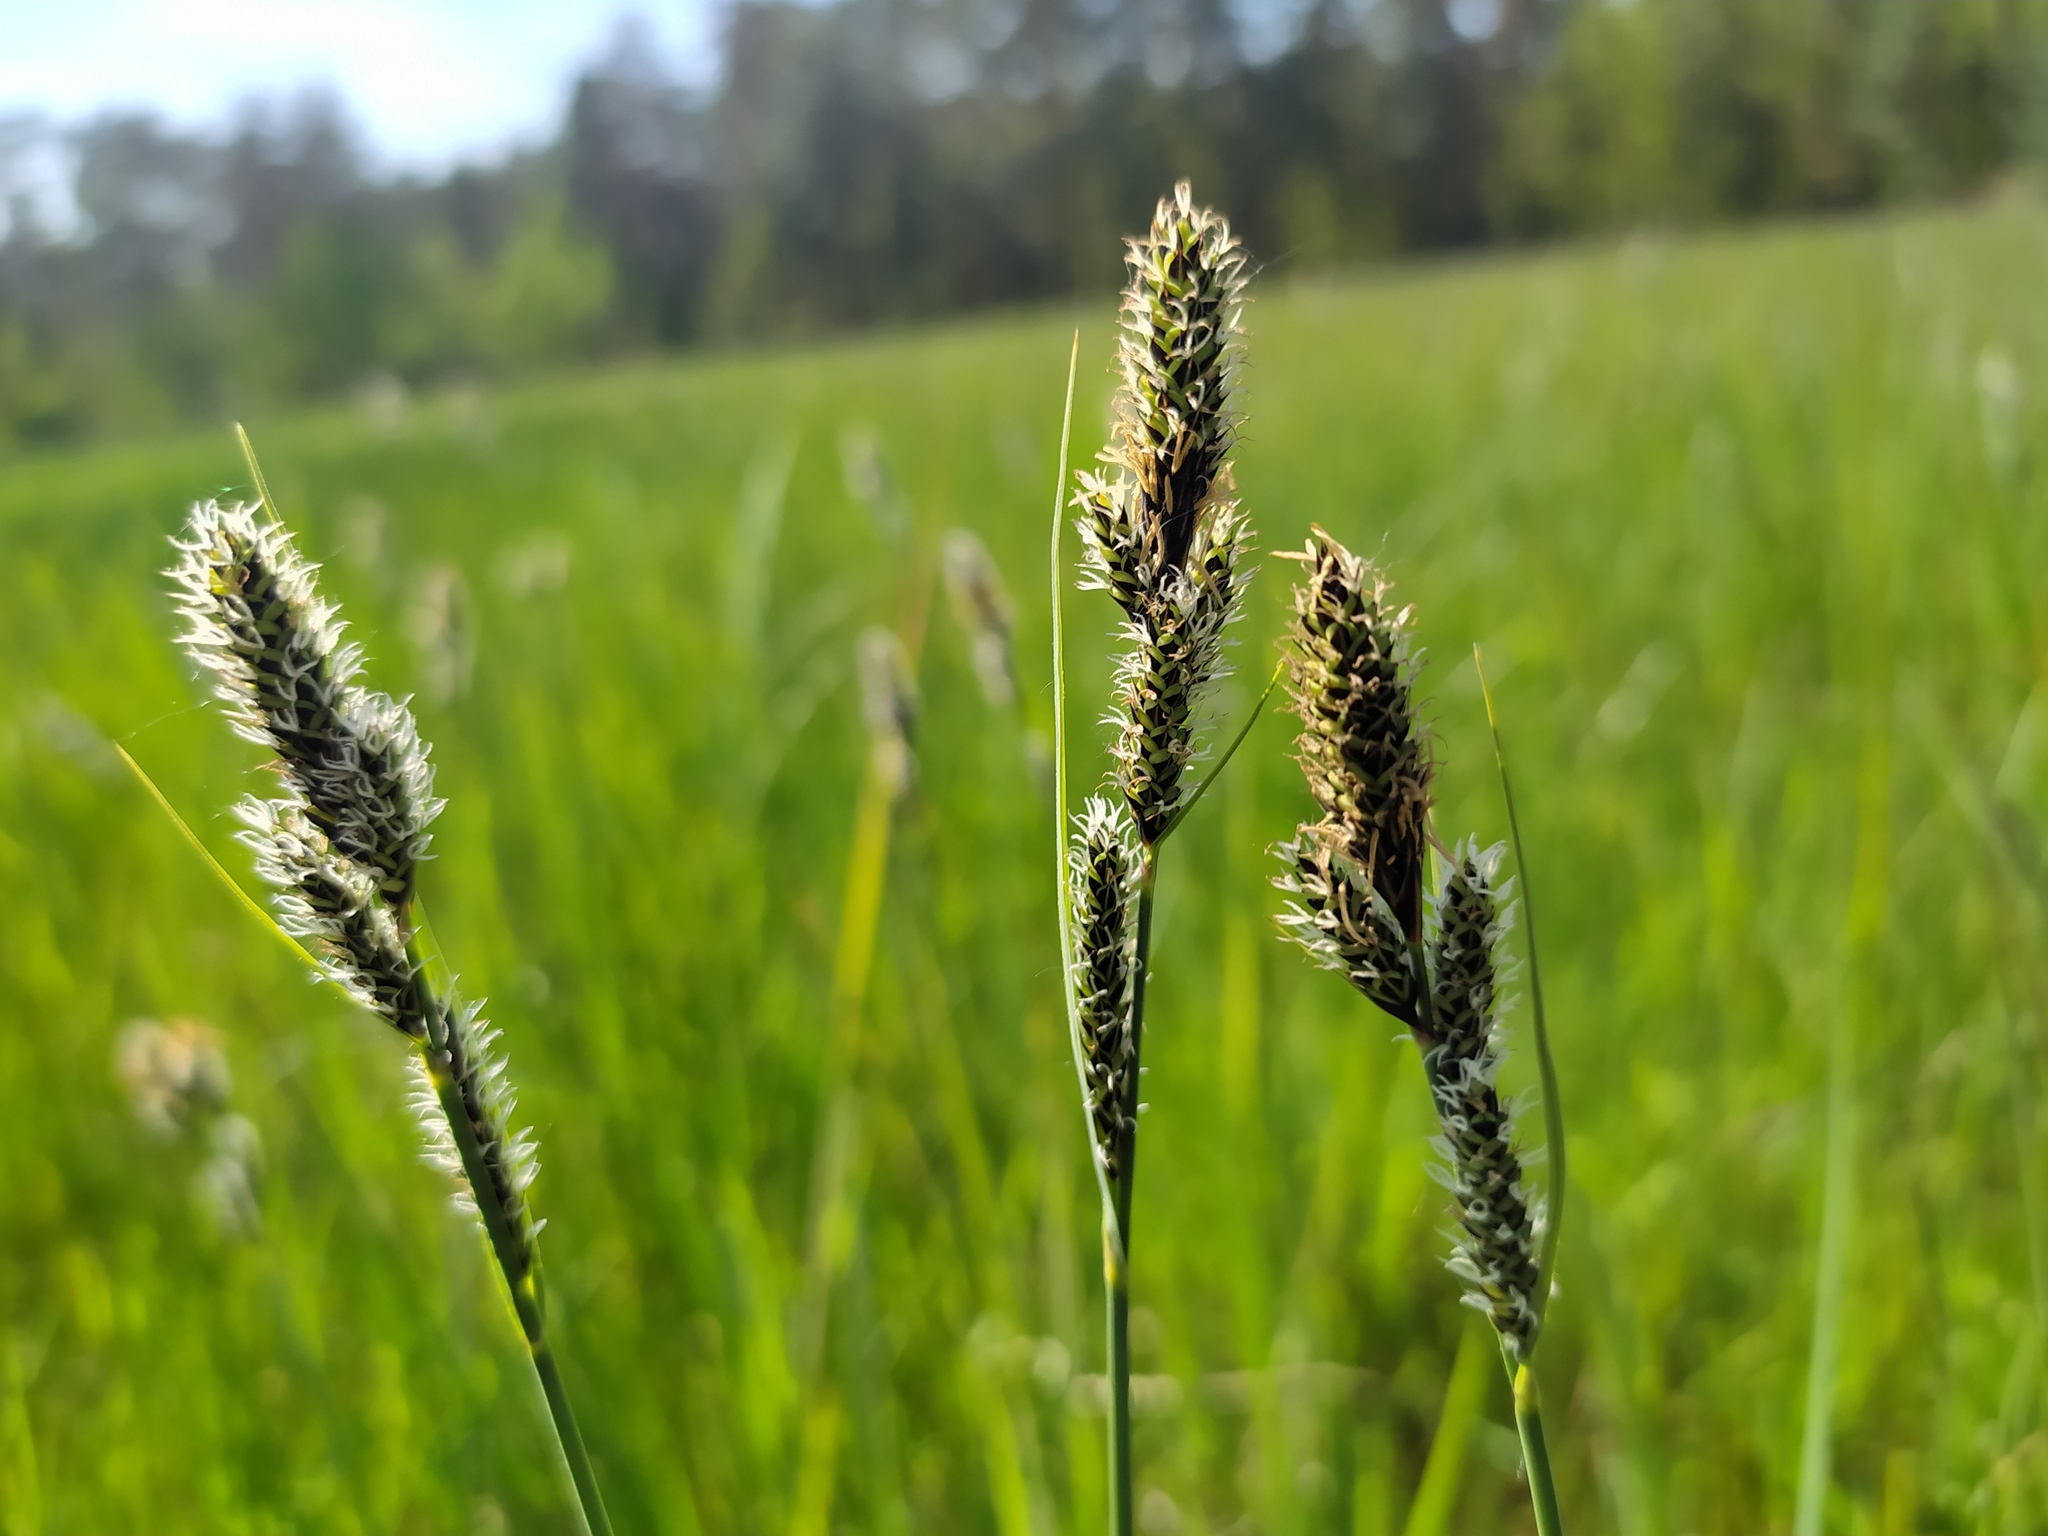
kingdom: Plantae
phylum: Tracheophyta
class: Liliopsida
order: Poales
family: Cyperaceae
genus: Carex
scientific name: Carex hartmaniorum
